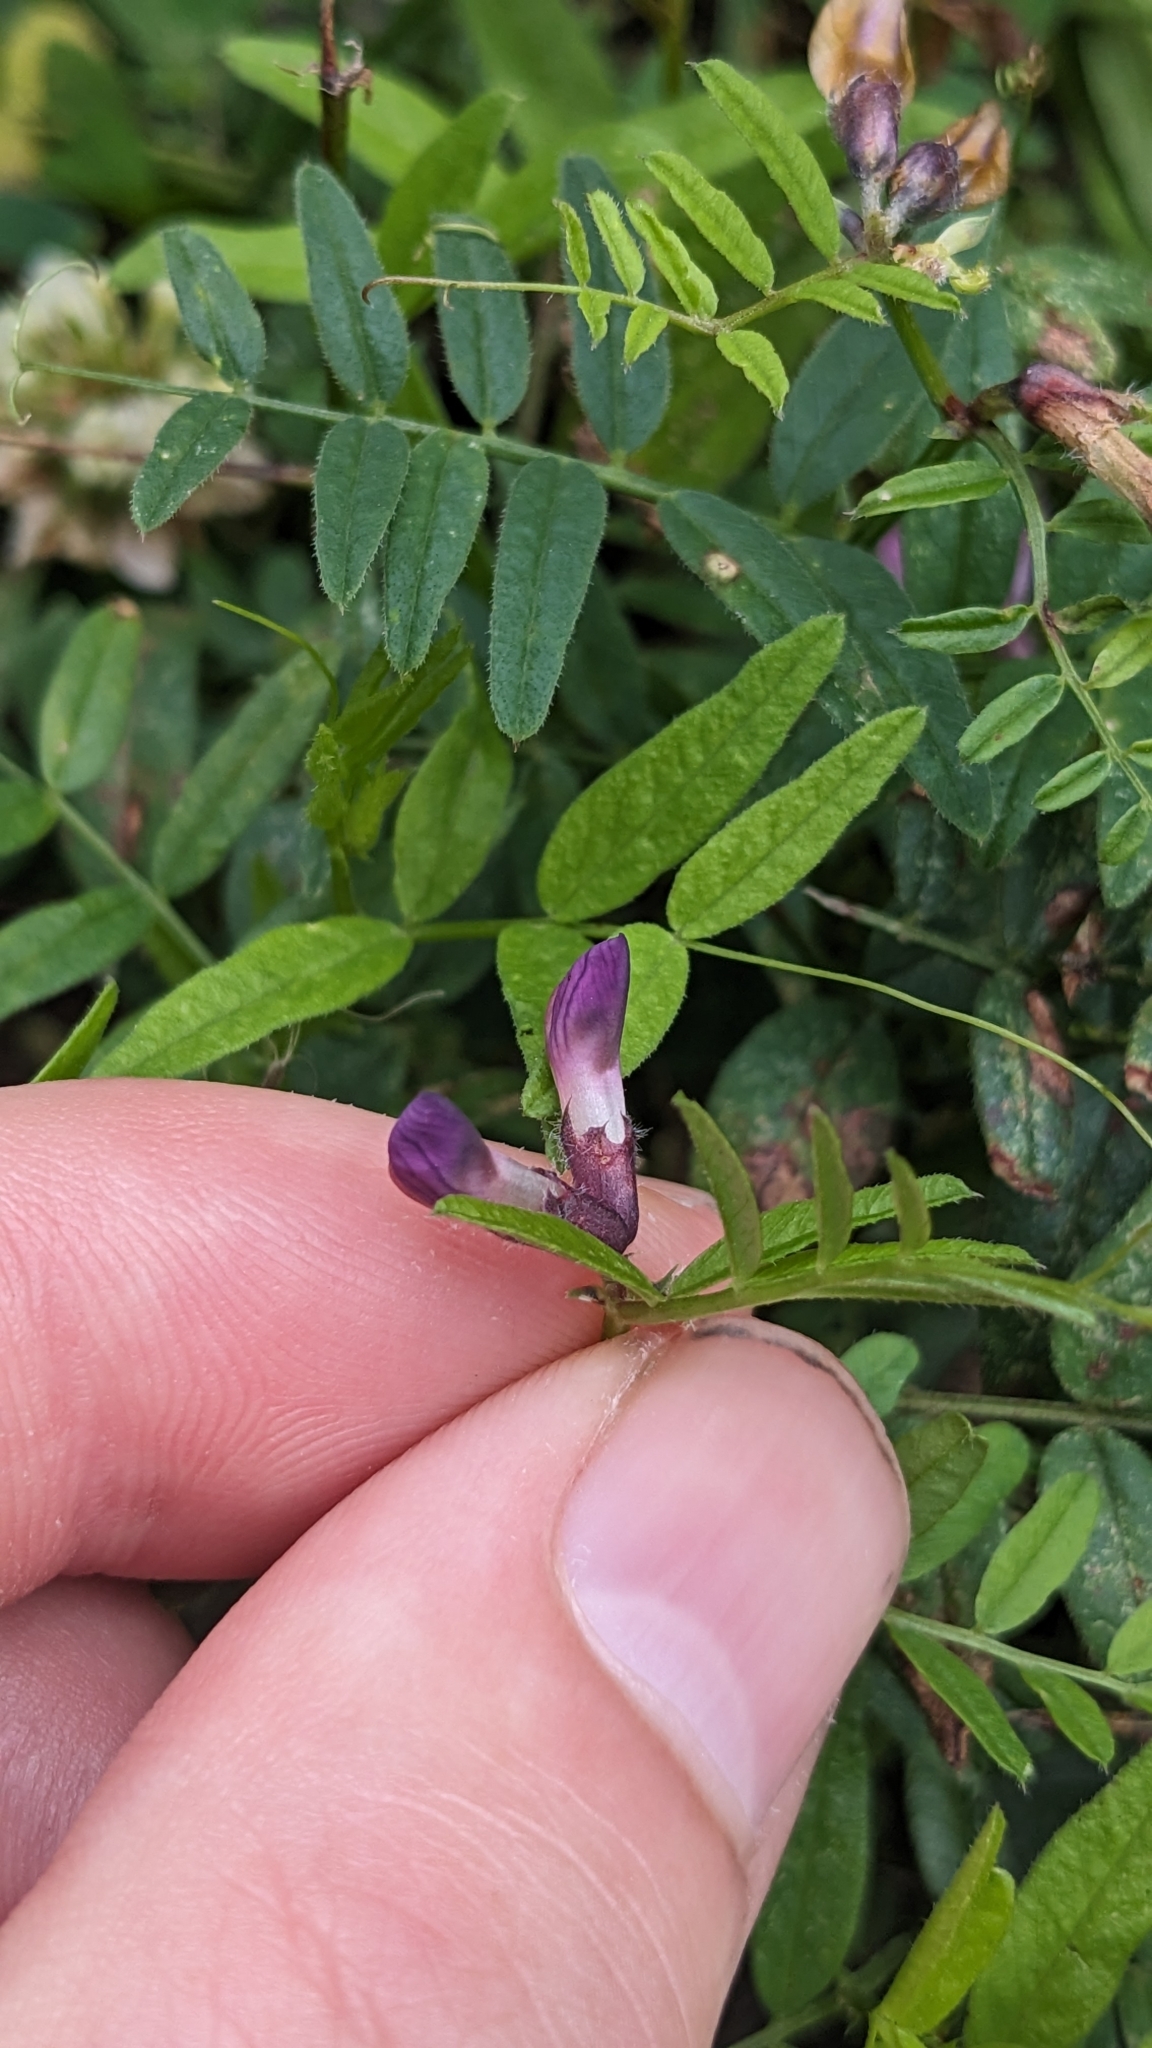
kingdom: Plantae
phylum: Tracheophyta
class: Magnoliopsida
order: Fabales
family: Fabaceae
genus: Vicia
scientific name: Vicia sepium
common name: Bush vetch
